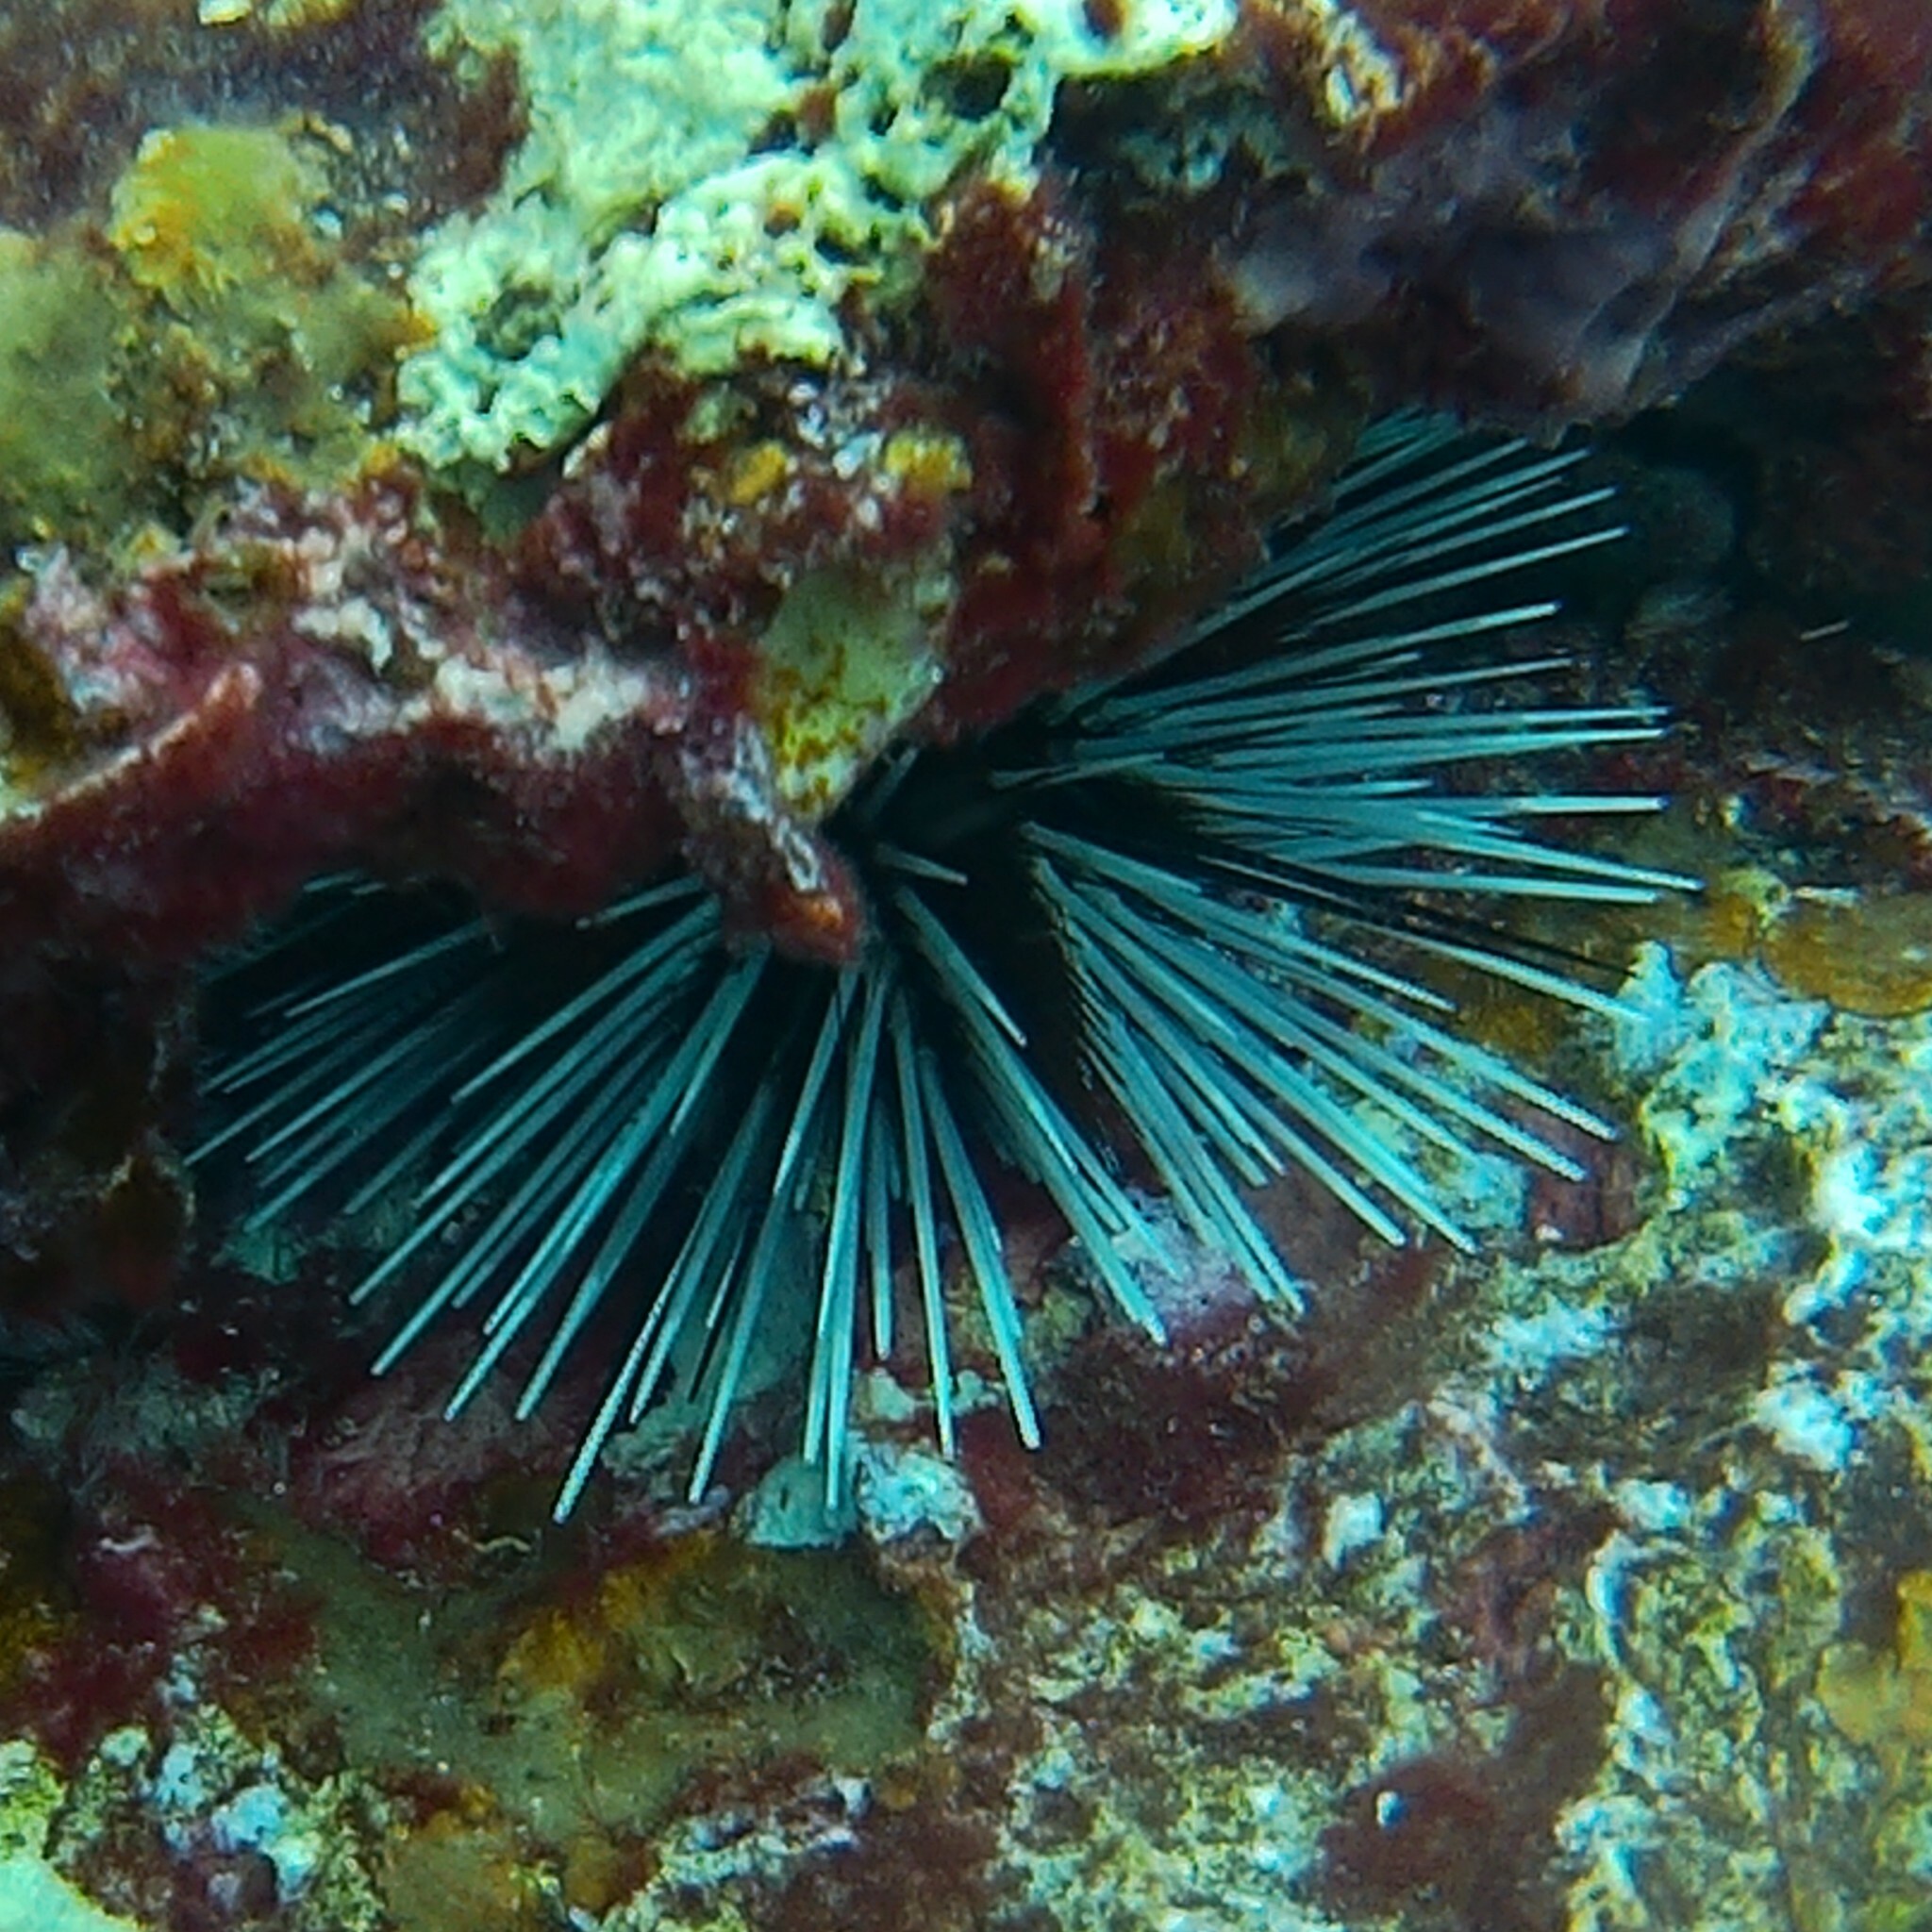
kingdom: Animalia
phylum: Echinodermata
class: Echinoidea
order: Diadematoida
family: Diadematidae
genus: Echinothrix
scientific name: Echinothrix calamaris
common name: Banded sea urchin
